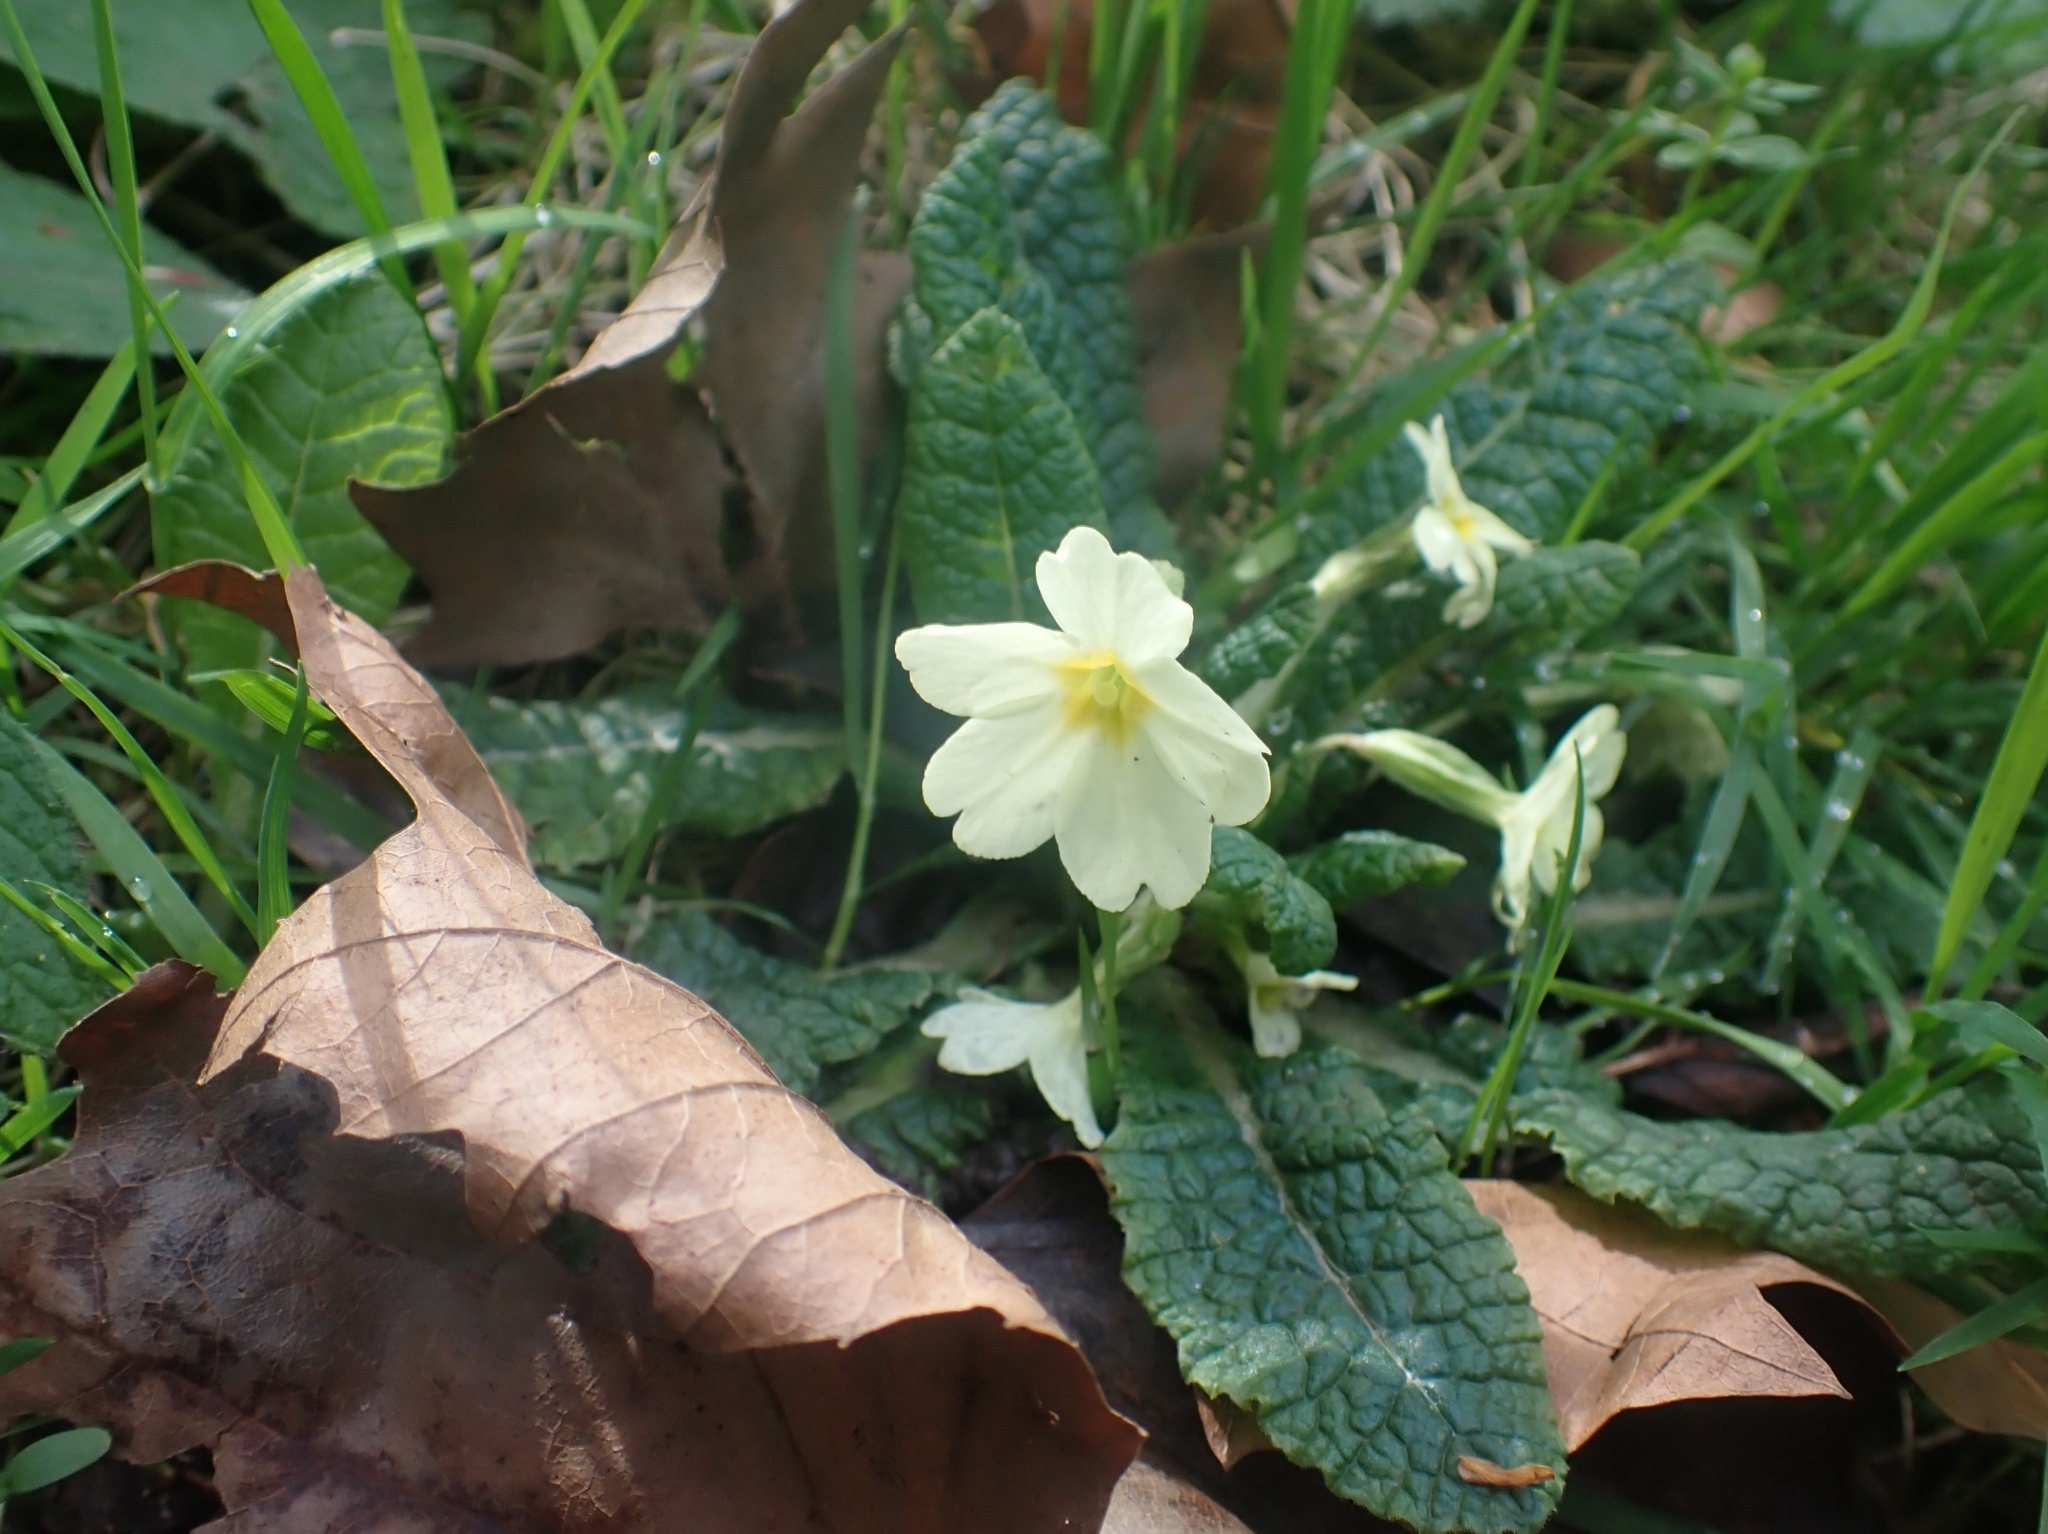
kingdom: Plantae
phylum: Tracheophyta
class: Magnoliopsida
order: Ericales
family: Primulaceae
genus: Primula
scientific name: Primula vulgaris
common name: Primrose
